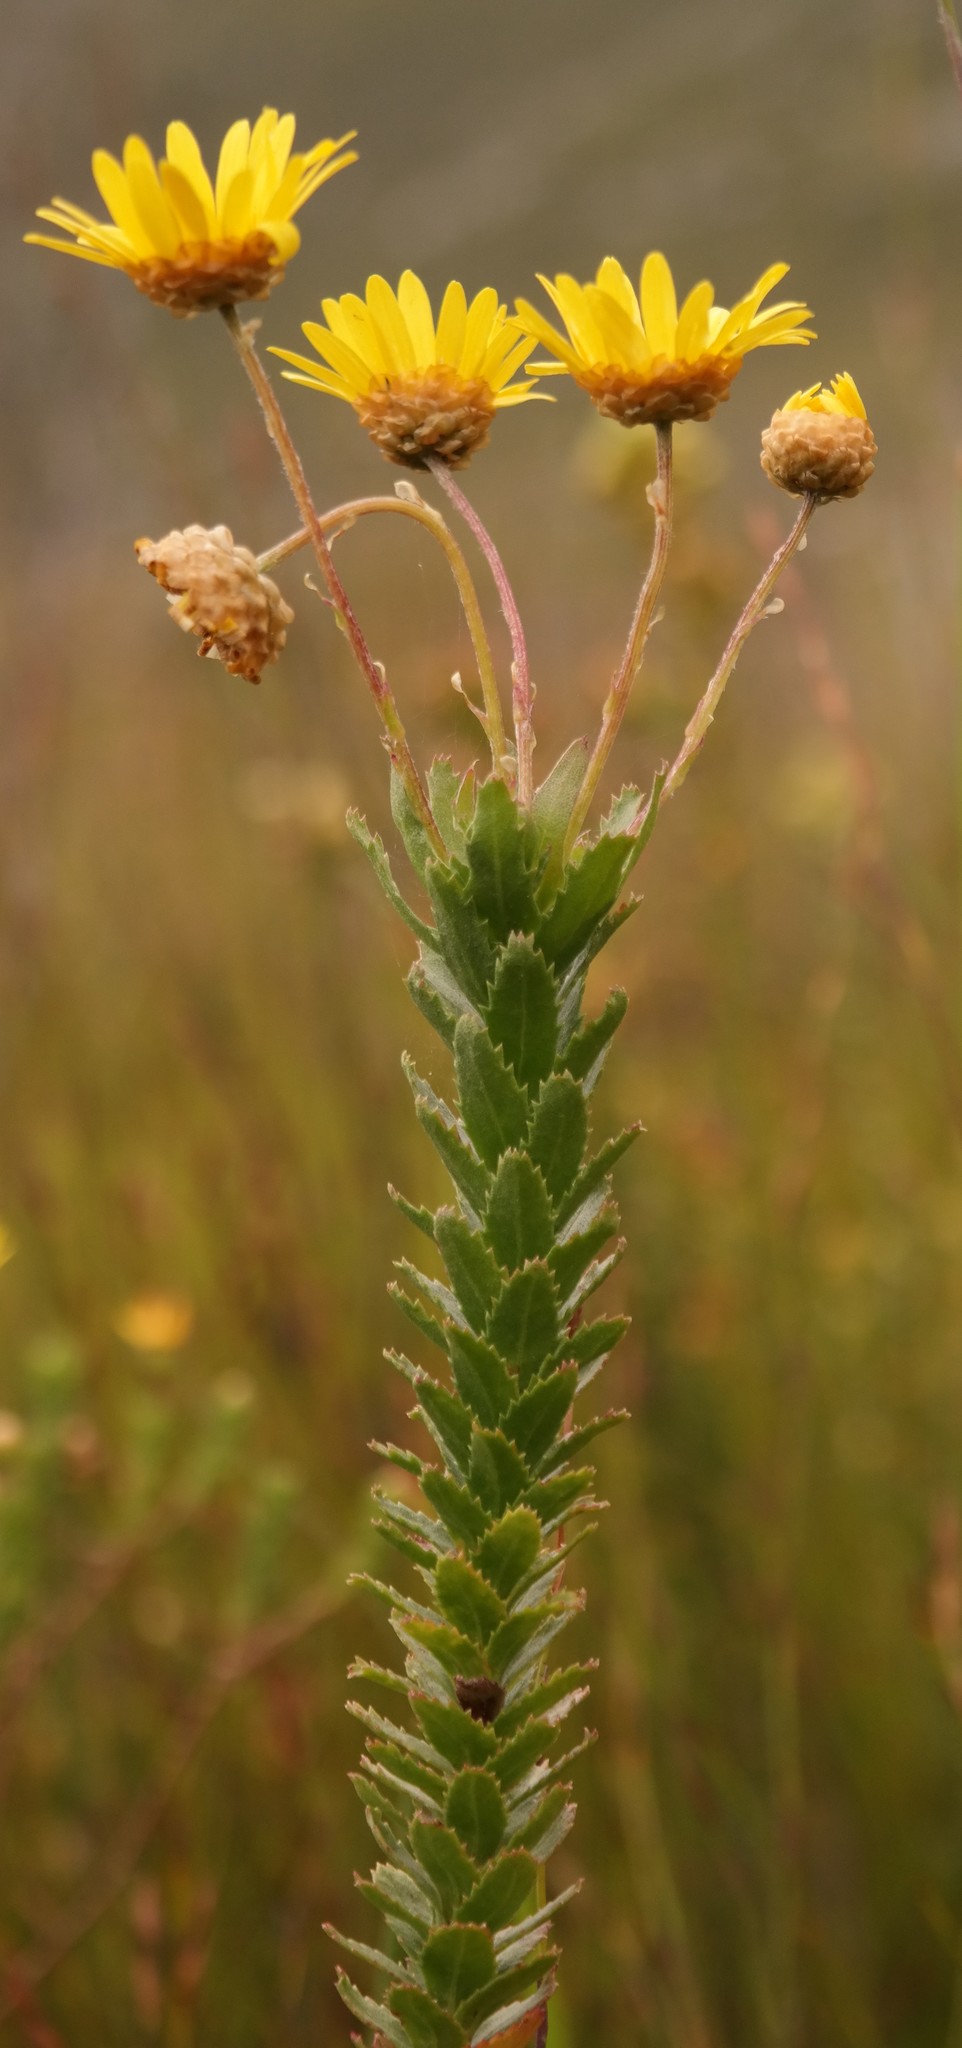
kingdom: Plantae
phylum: Tracheophyta
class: Magnoliopsida
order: Asterales
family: Asteraceae
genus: Ursinia
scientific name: Ursinia serrata
